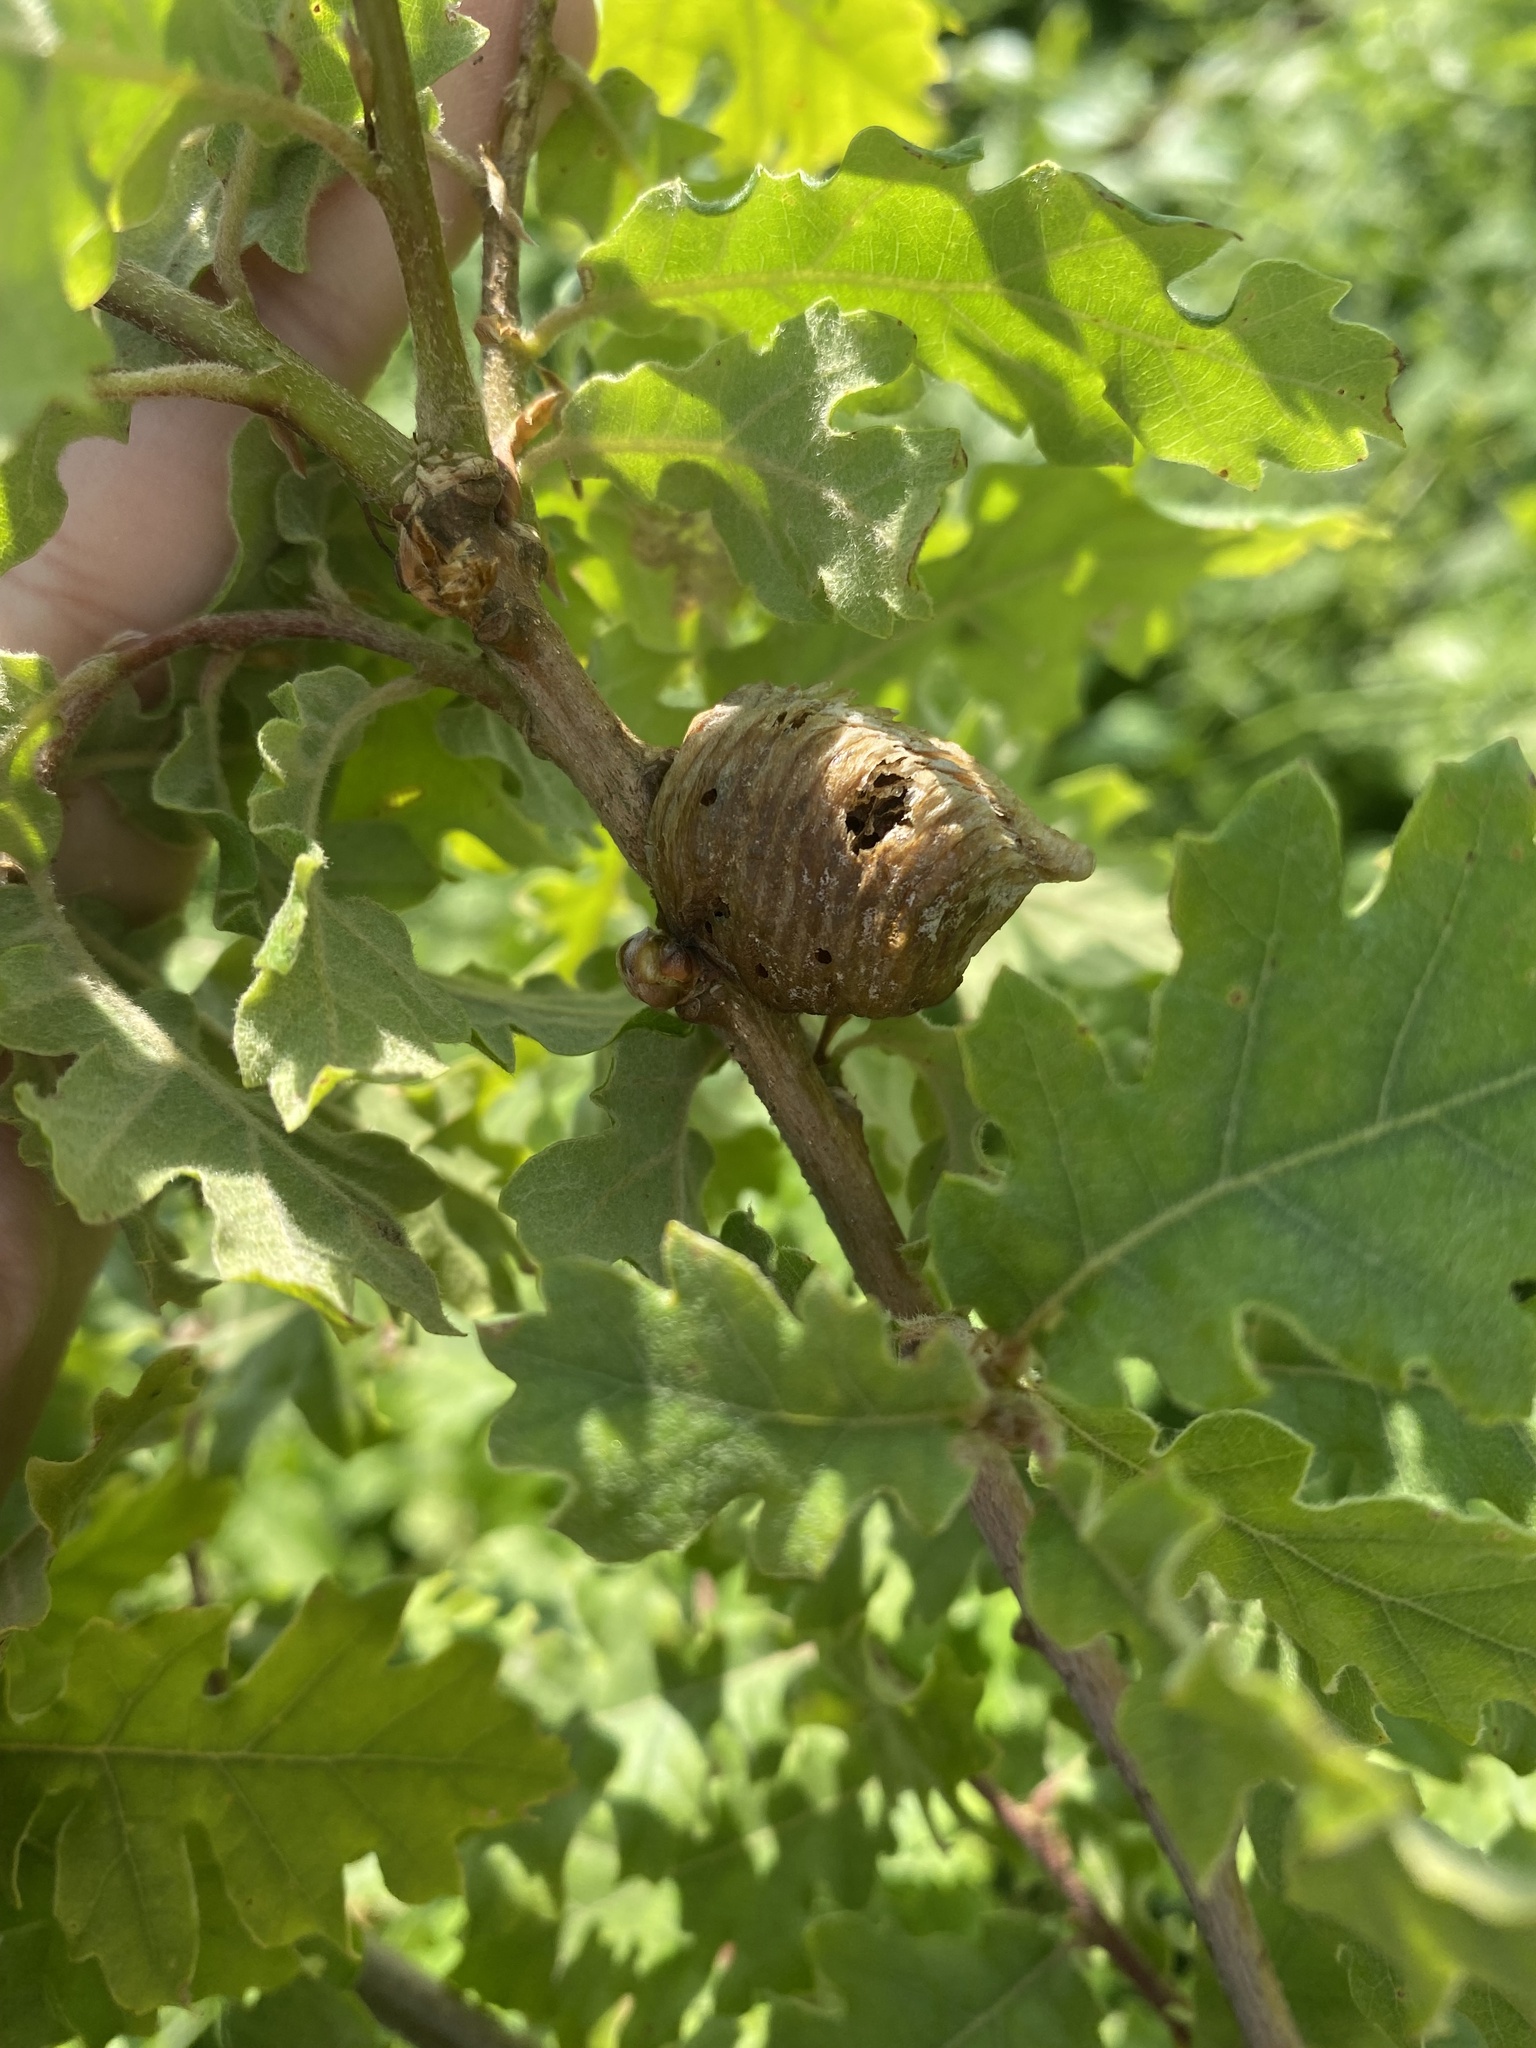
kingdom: Animalia
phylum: Arthropoda
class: Insecta
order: Mantodea
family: Mantidae
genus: Hierodula
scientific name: Hierodula transcaucasica
